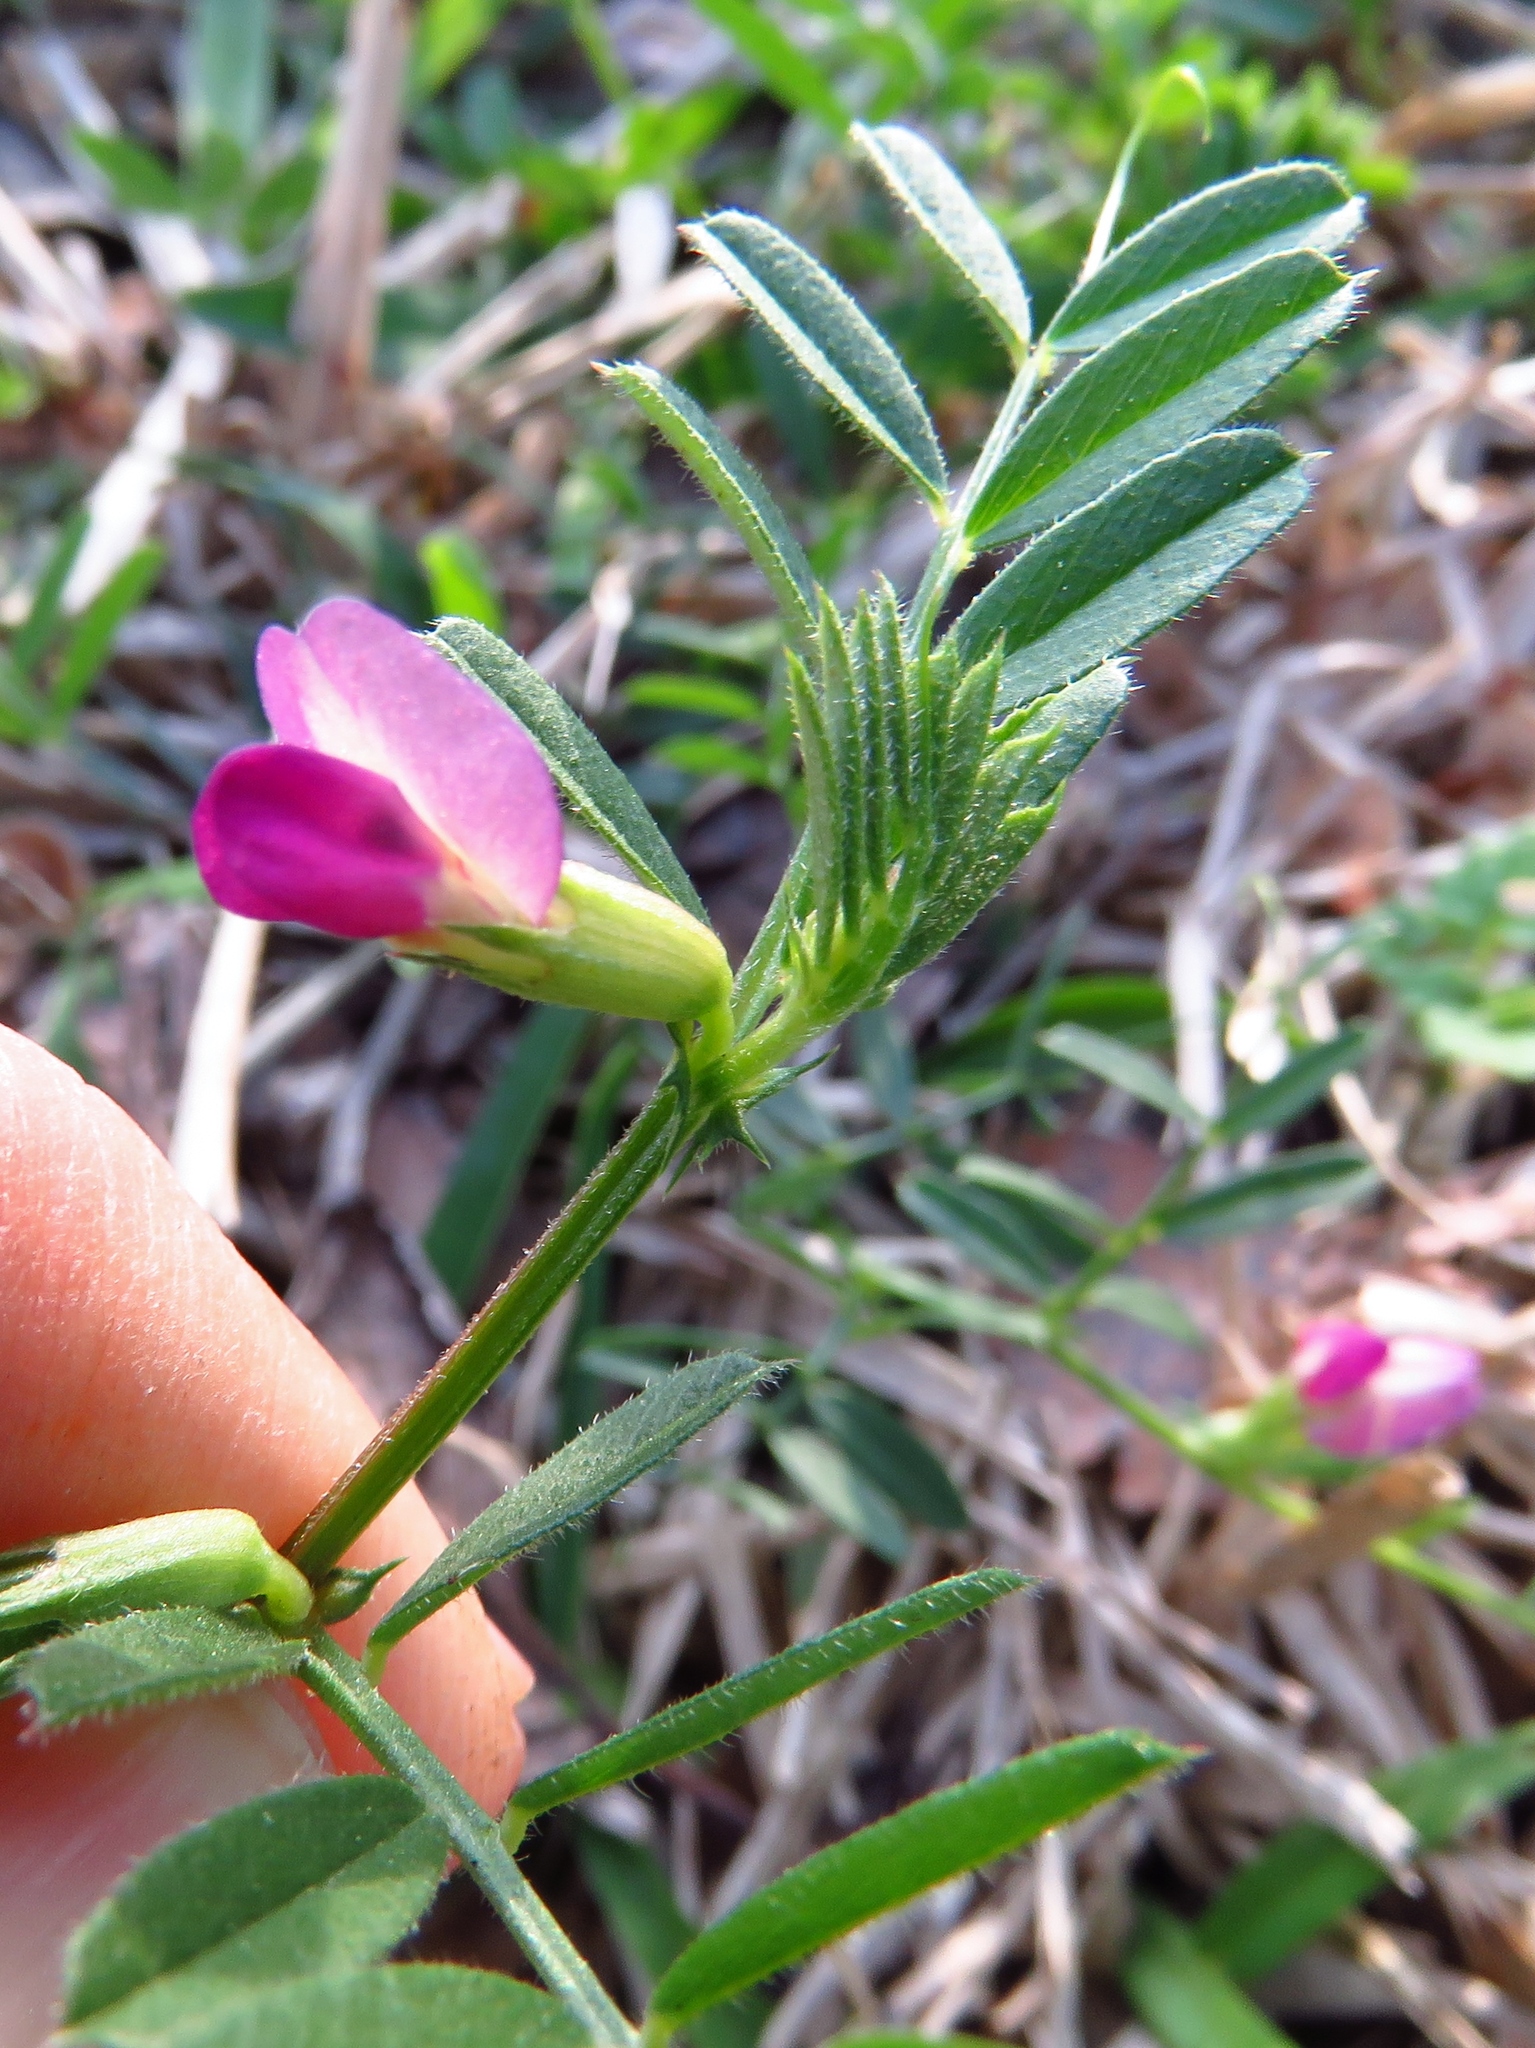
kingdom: Plantae
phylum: Tracheophyta
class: Magnoliopsida
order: Fabales
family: Fabaceae
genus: Vicia
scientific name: Vicia sativa
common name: Garden vetch
